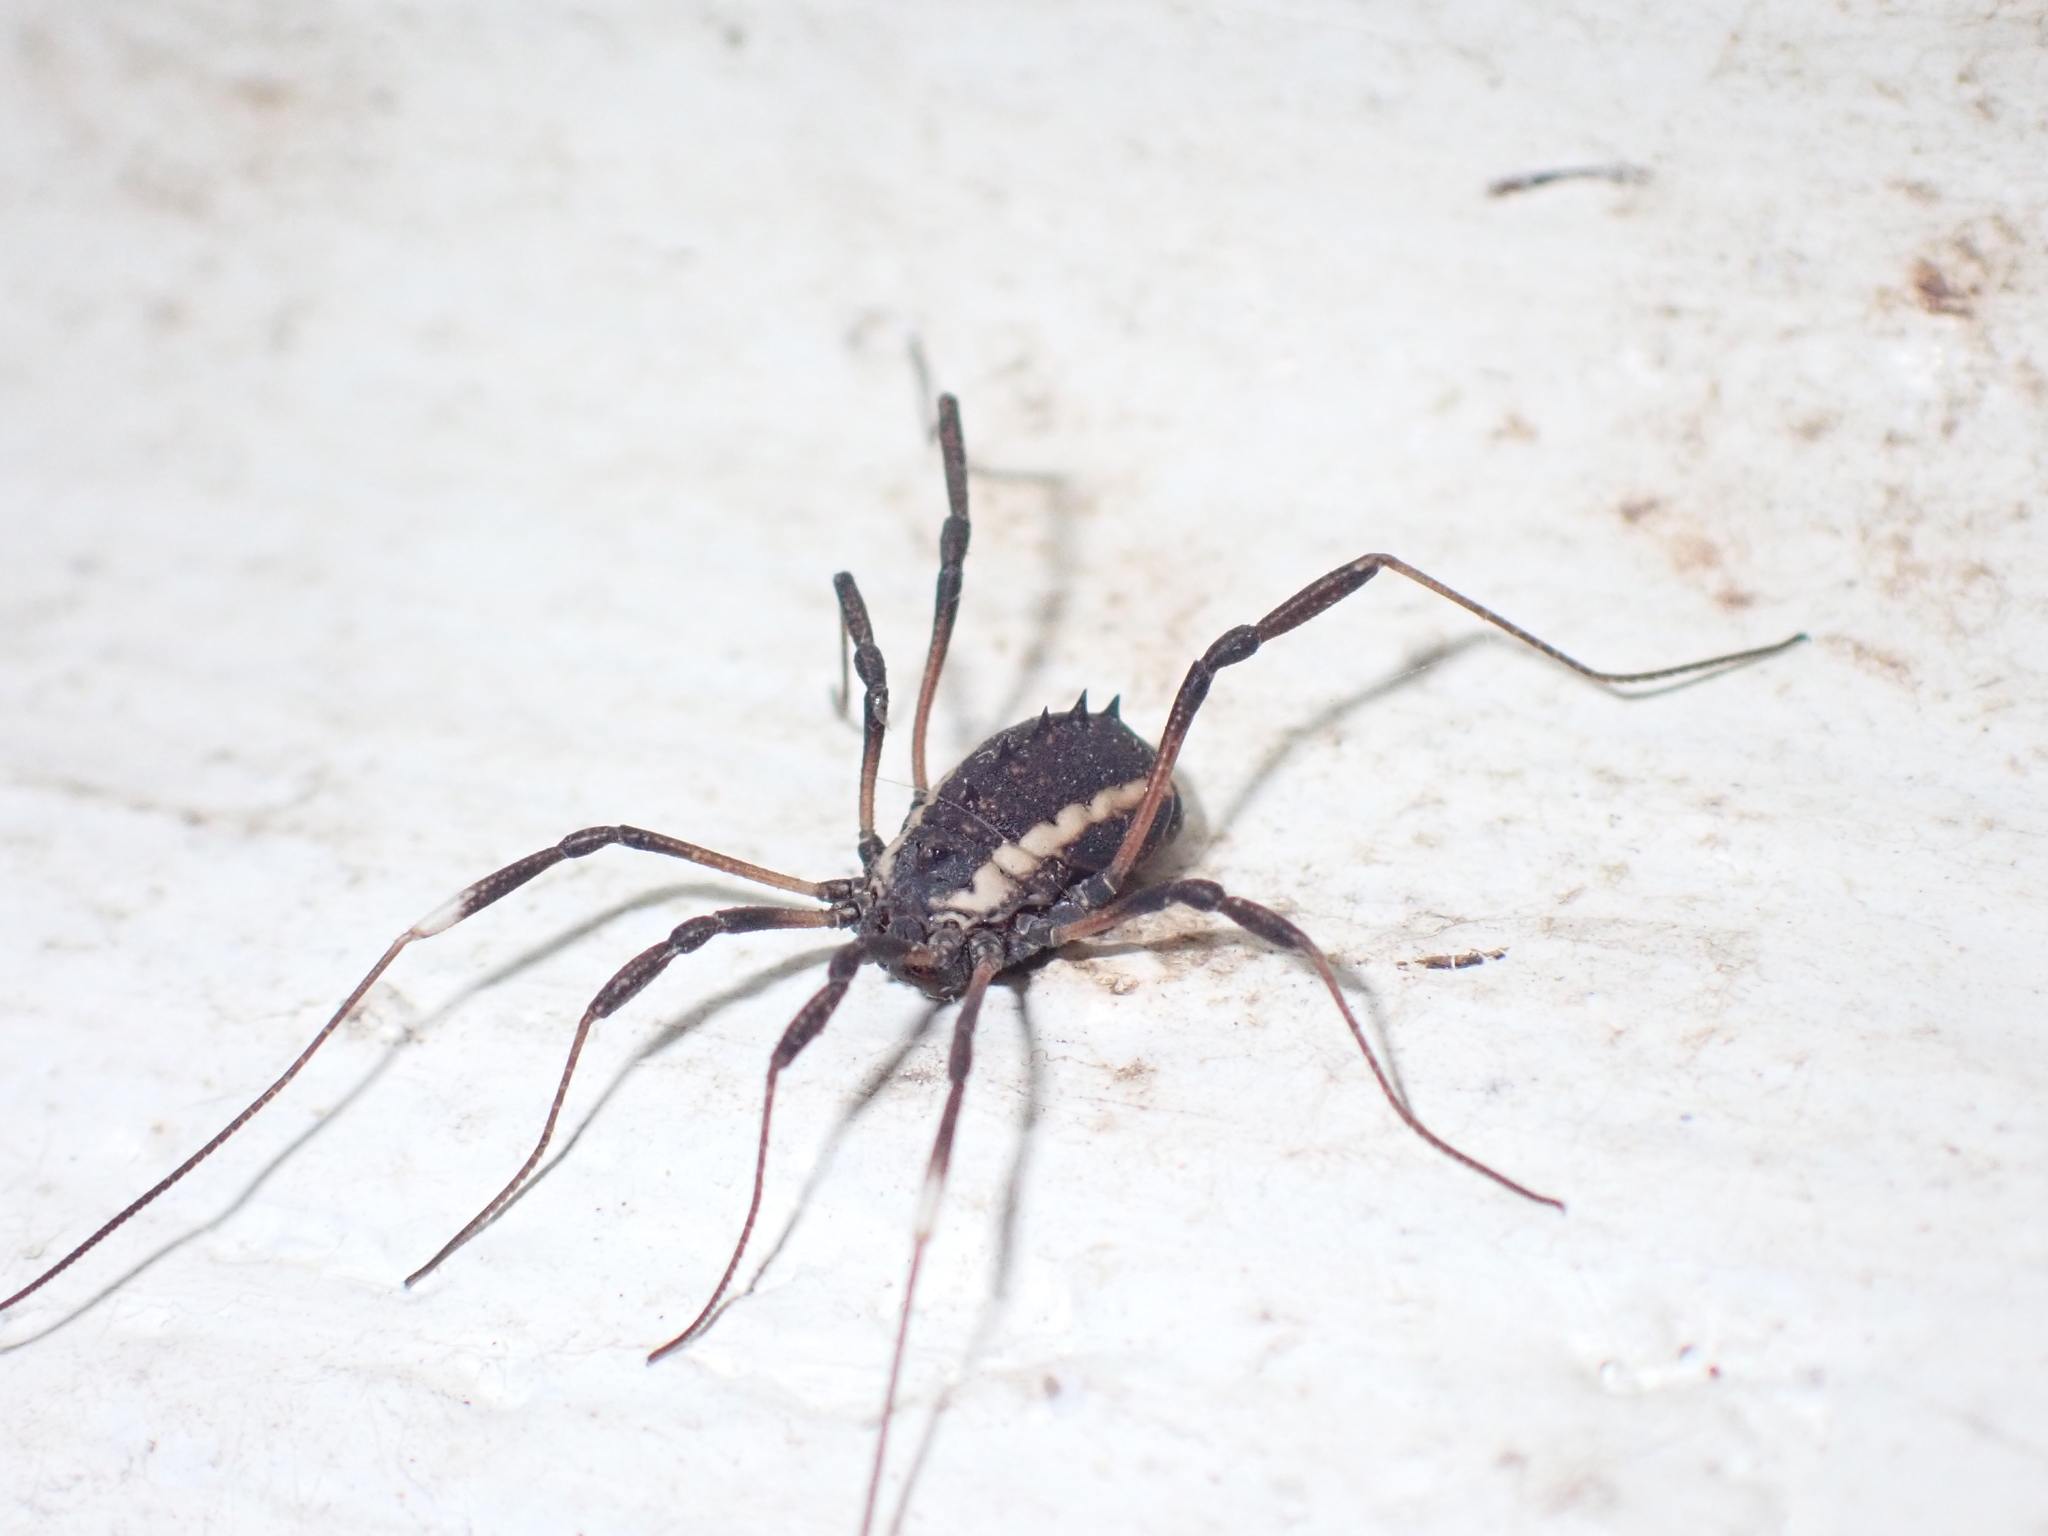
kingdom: Animalia
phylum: Arthropoda
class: Arachnida
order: Opiliones
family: Sclerosomatidae
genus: Systenocentrus
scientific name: Systenocentrus luteobiseriatus
